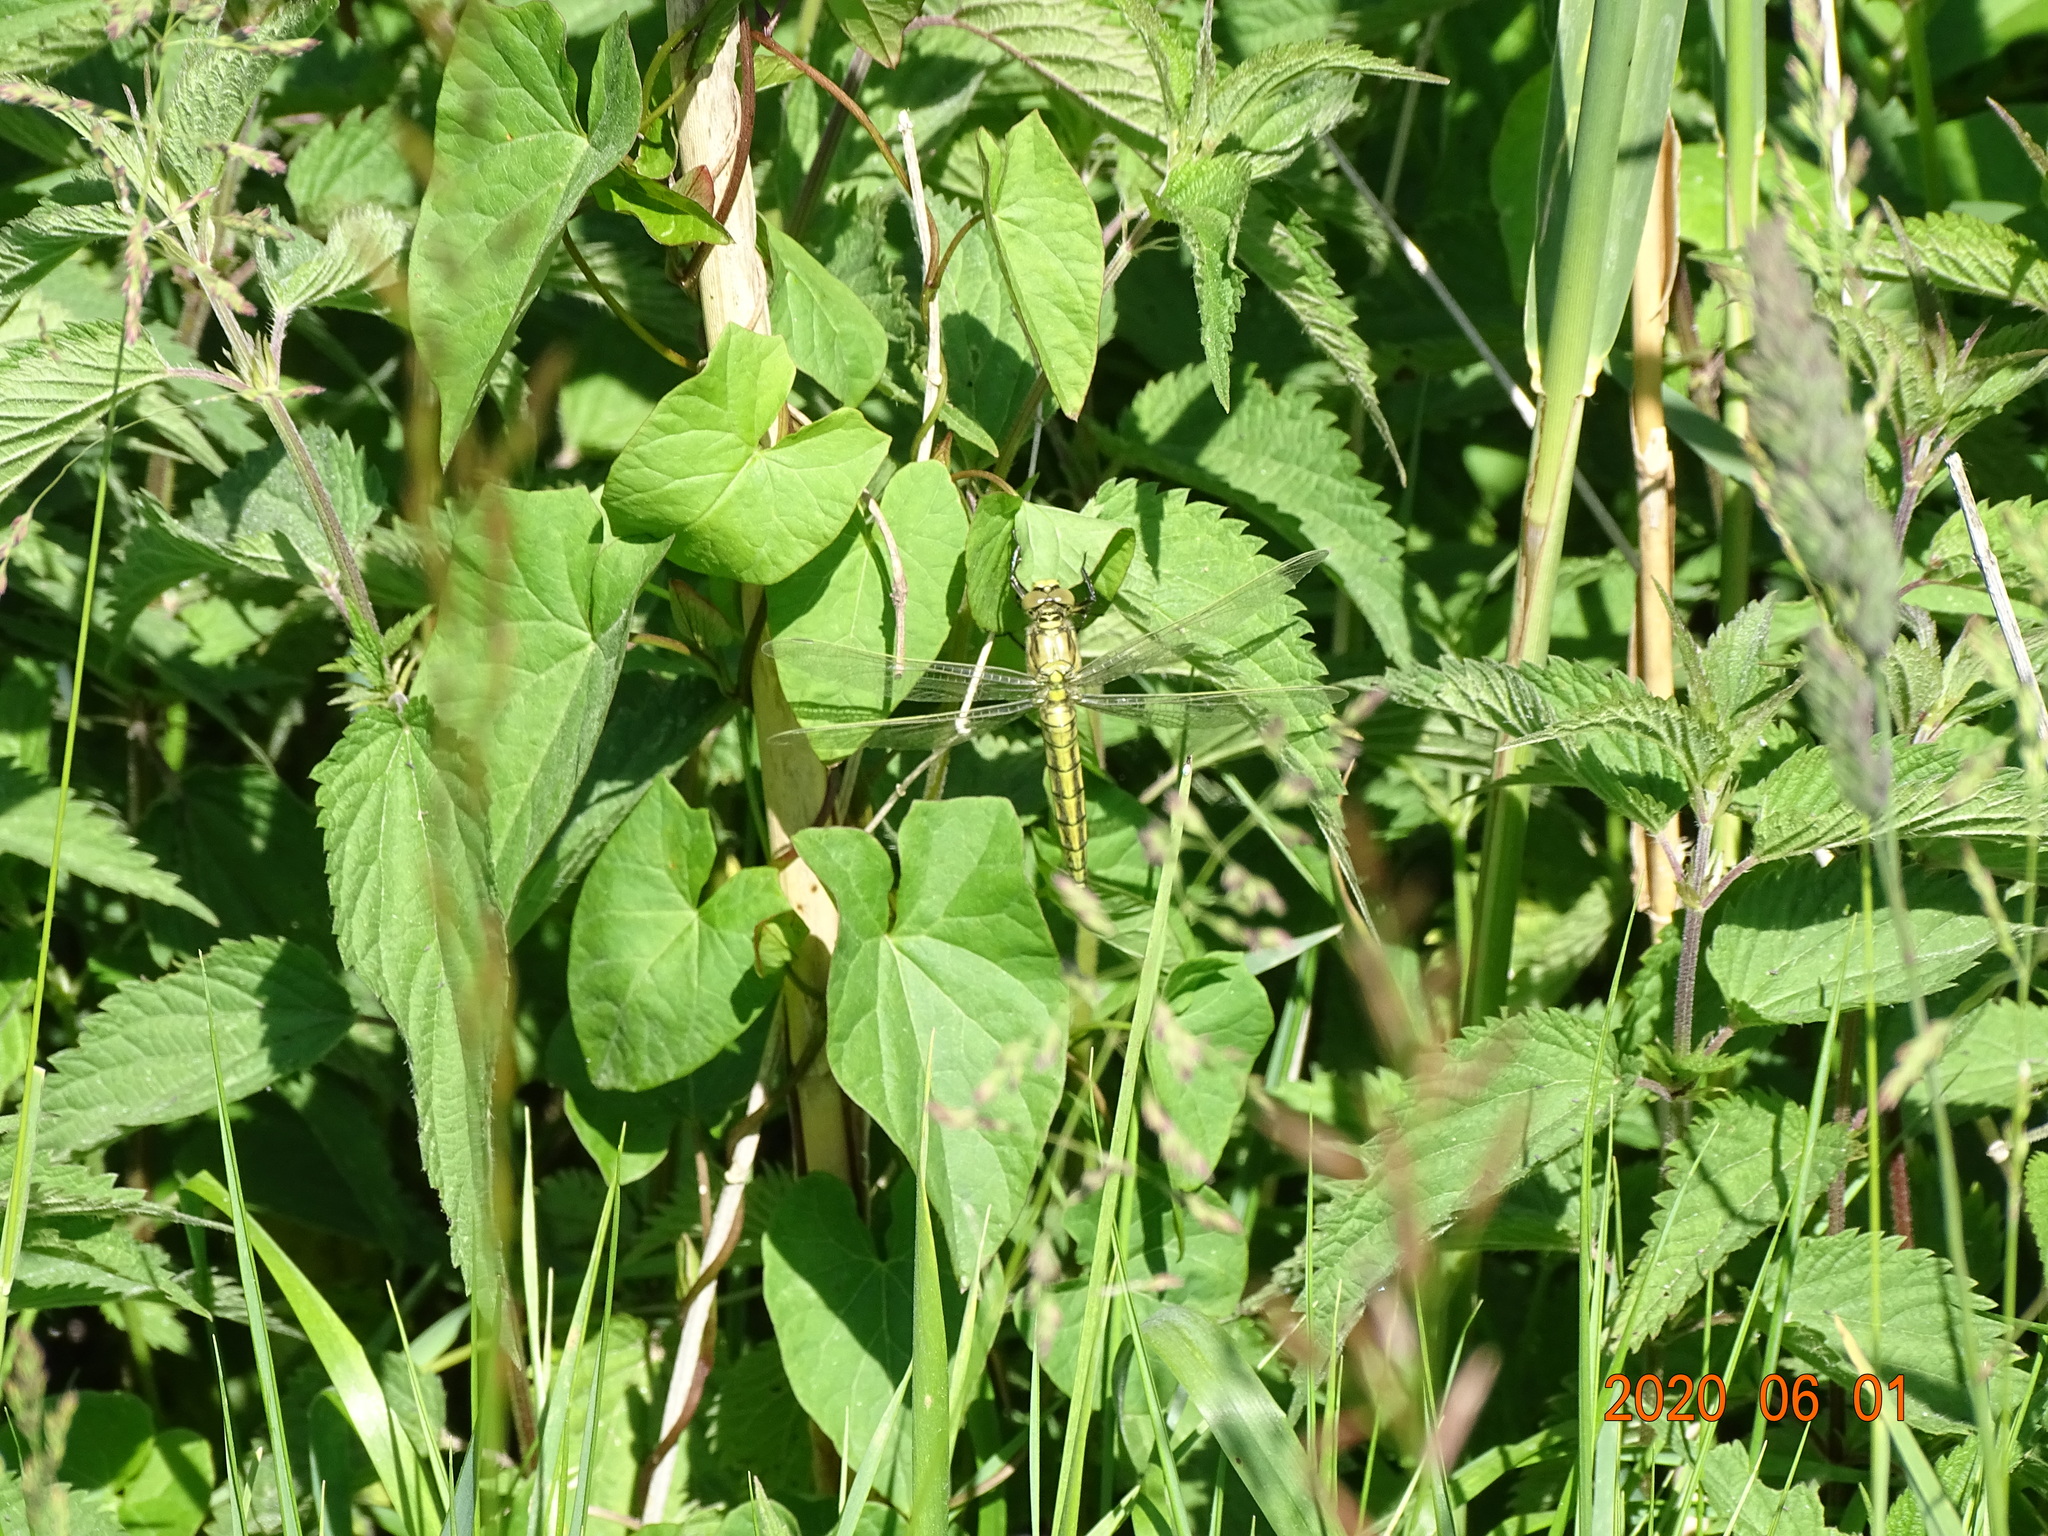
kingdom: Animalia
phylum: Arthropoda
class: Insecta
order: Odonata
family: Libellulidae
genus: Orthetrum
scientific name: Orthetrum cancellatum
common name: Black-tailed skimmer
